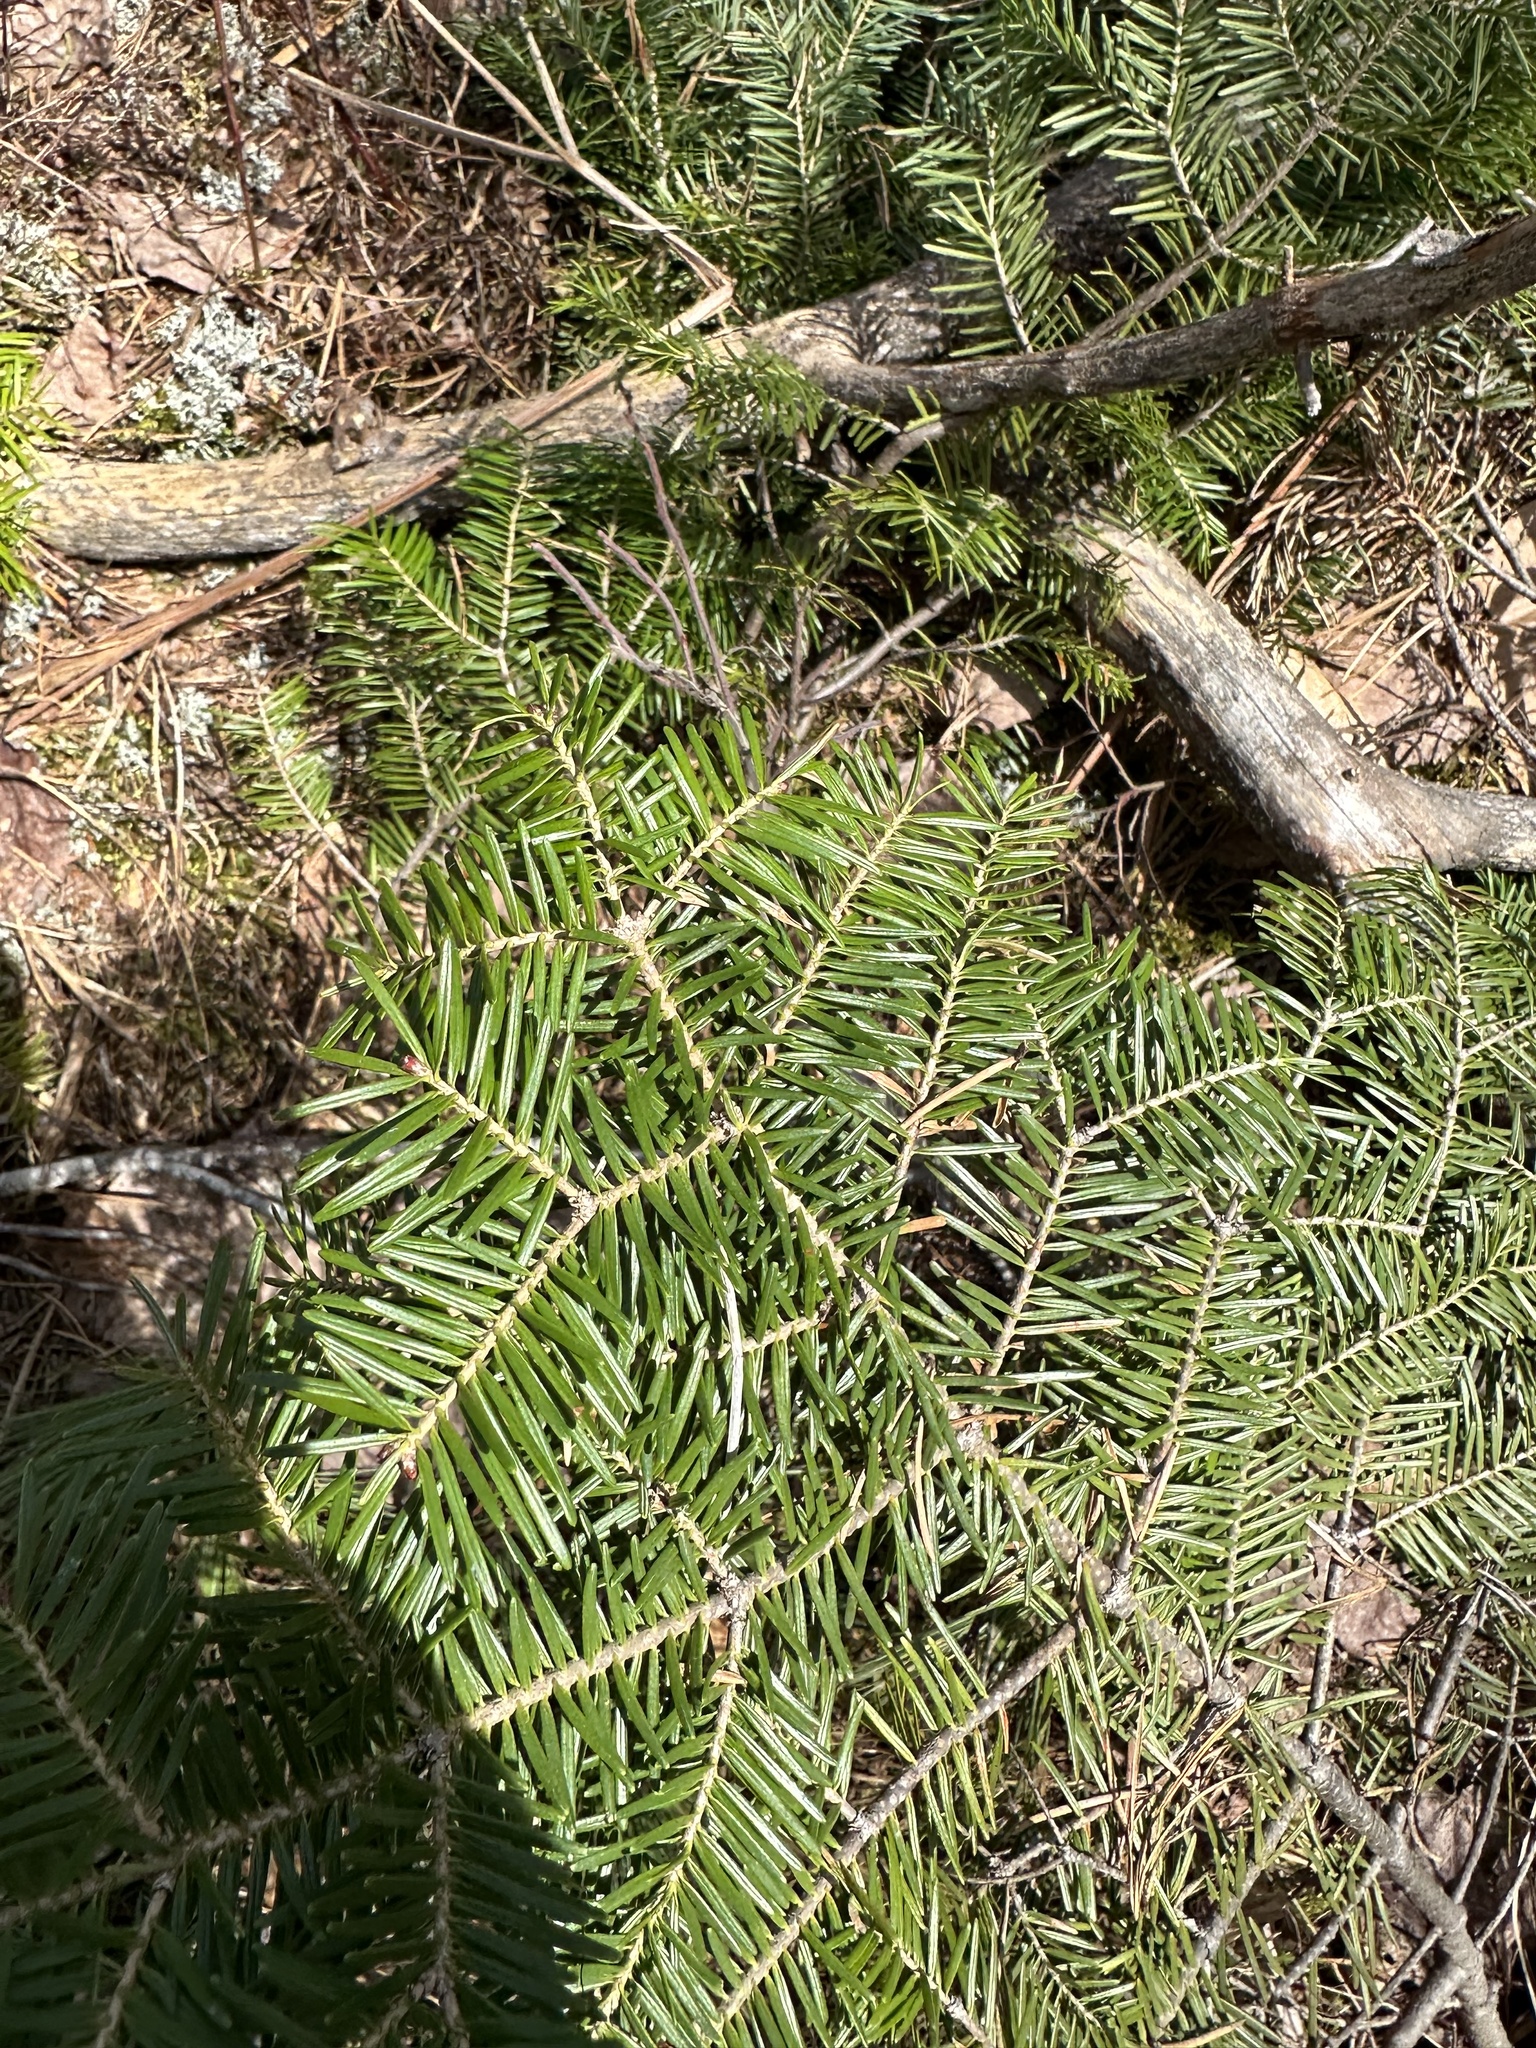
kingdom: Plantae
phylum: Tracheophyta
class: Pinopsida
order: Pinales
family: Pinaceae
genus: Abies
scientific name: Abies balsamea
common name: Balsam fir
